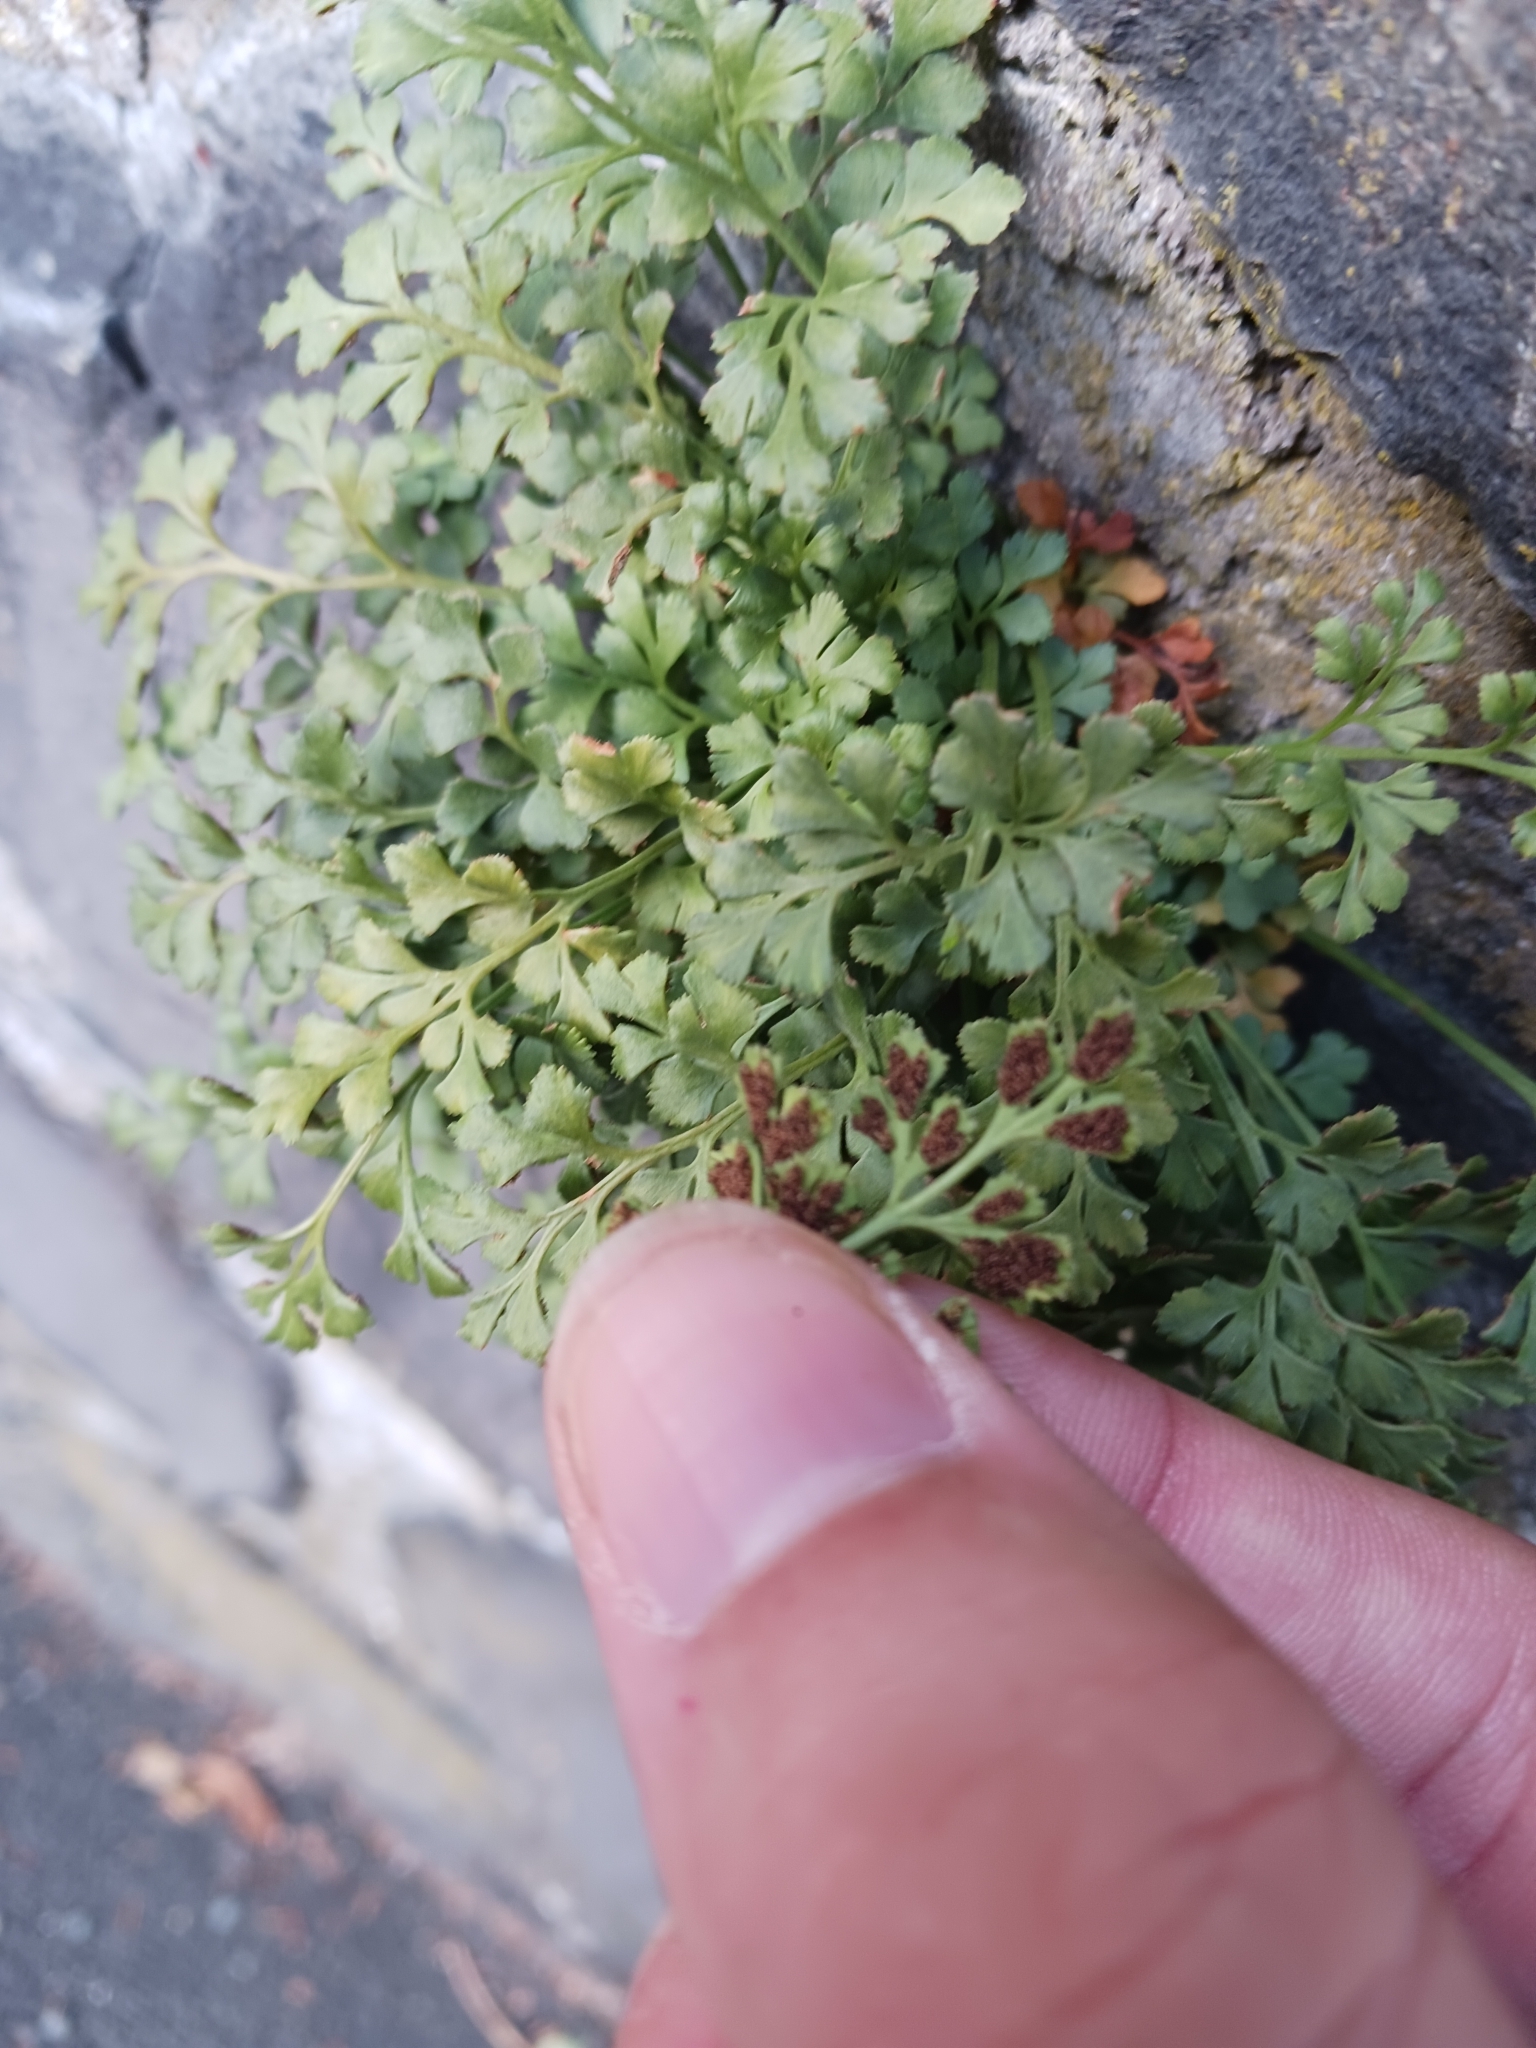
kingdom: Plantae
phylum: Tracheophyta
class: Polypodiopsida
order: Polypodiales
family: Aspleniaceae
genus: Asplenium
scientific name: Asplenium ruta-muraria
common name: Wall-rue
